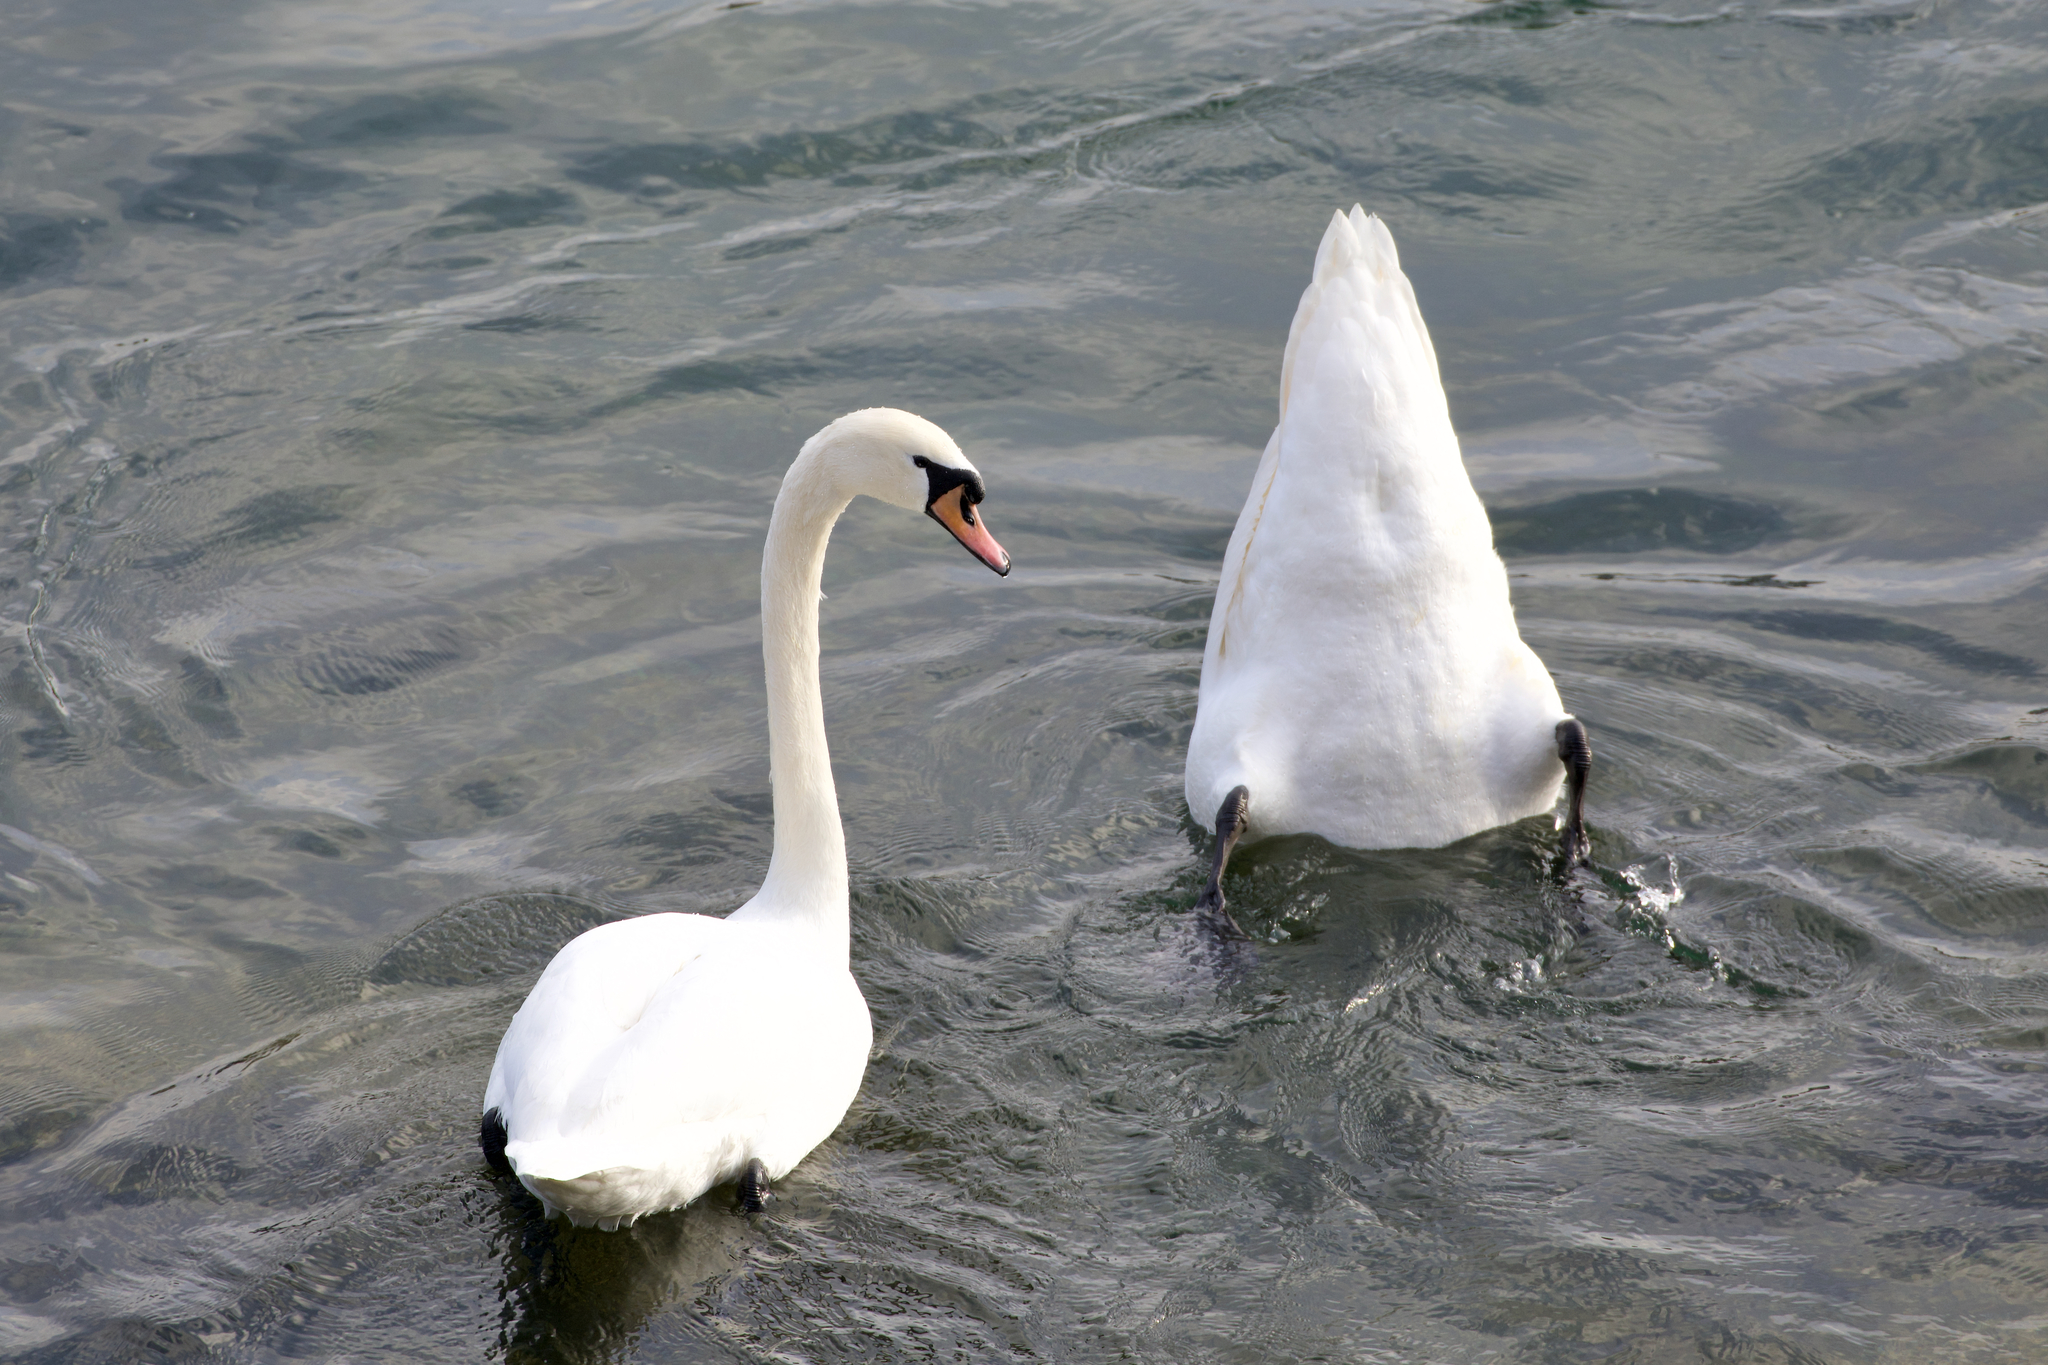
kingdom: Animalia
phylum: Chordata
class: Aves
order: Anseriformes
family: Anatidae
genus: Cygnus
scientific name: Cygnus olor
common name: Mute swan
